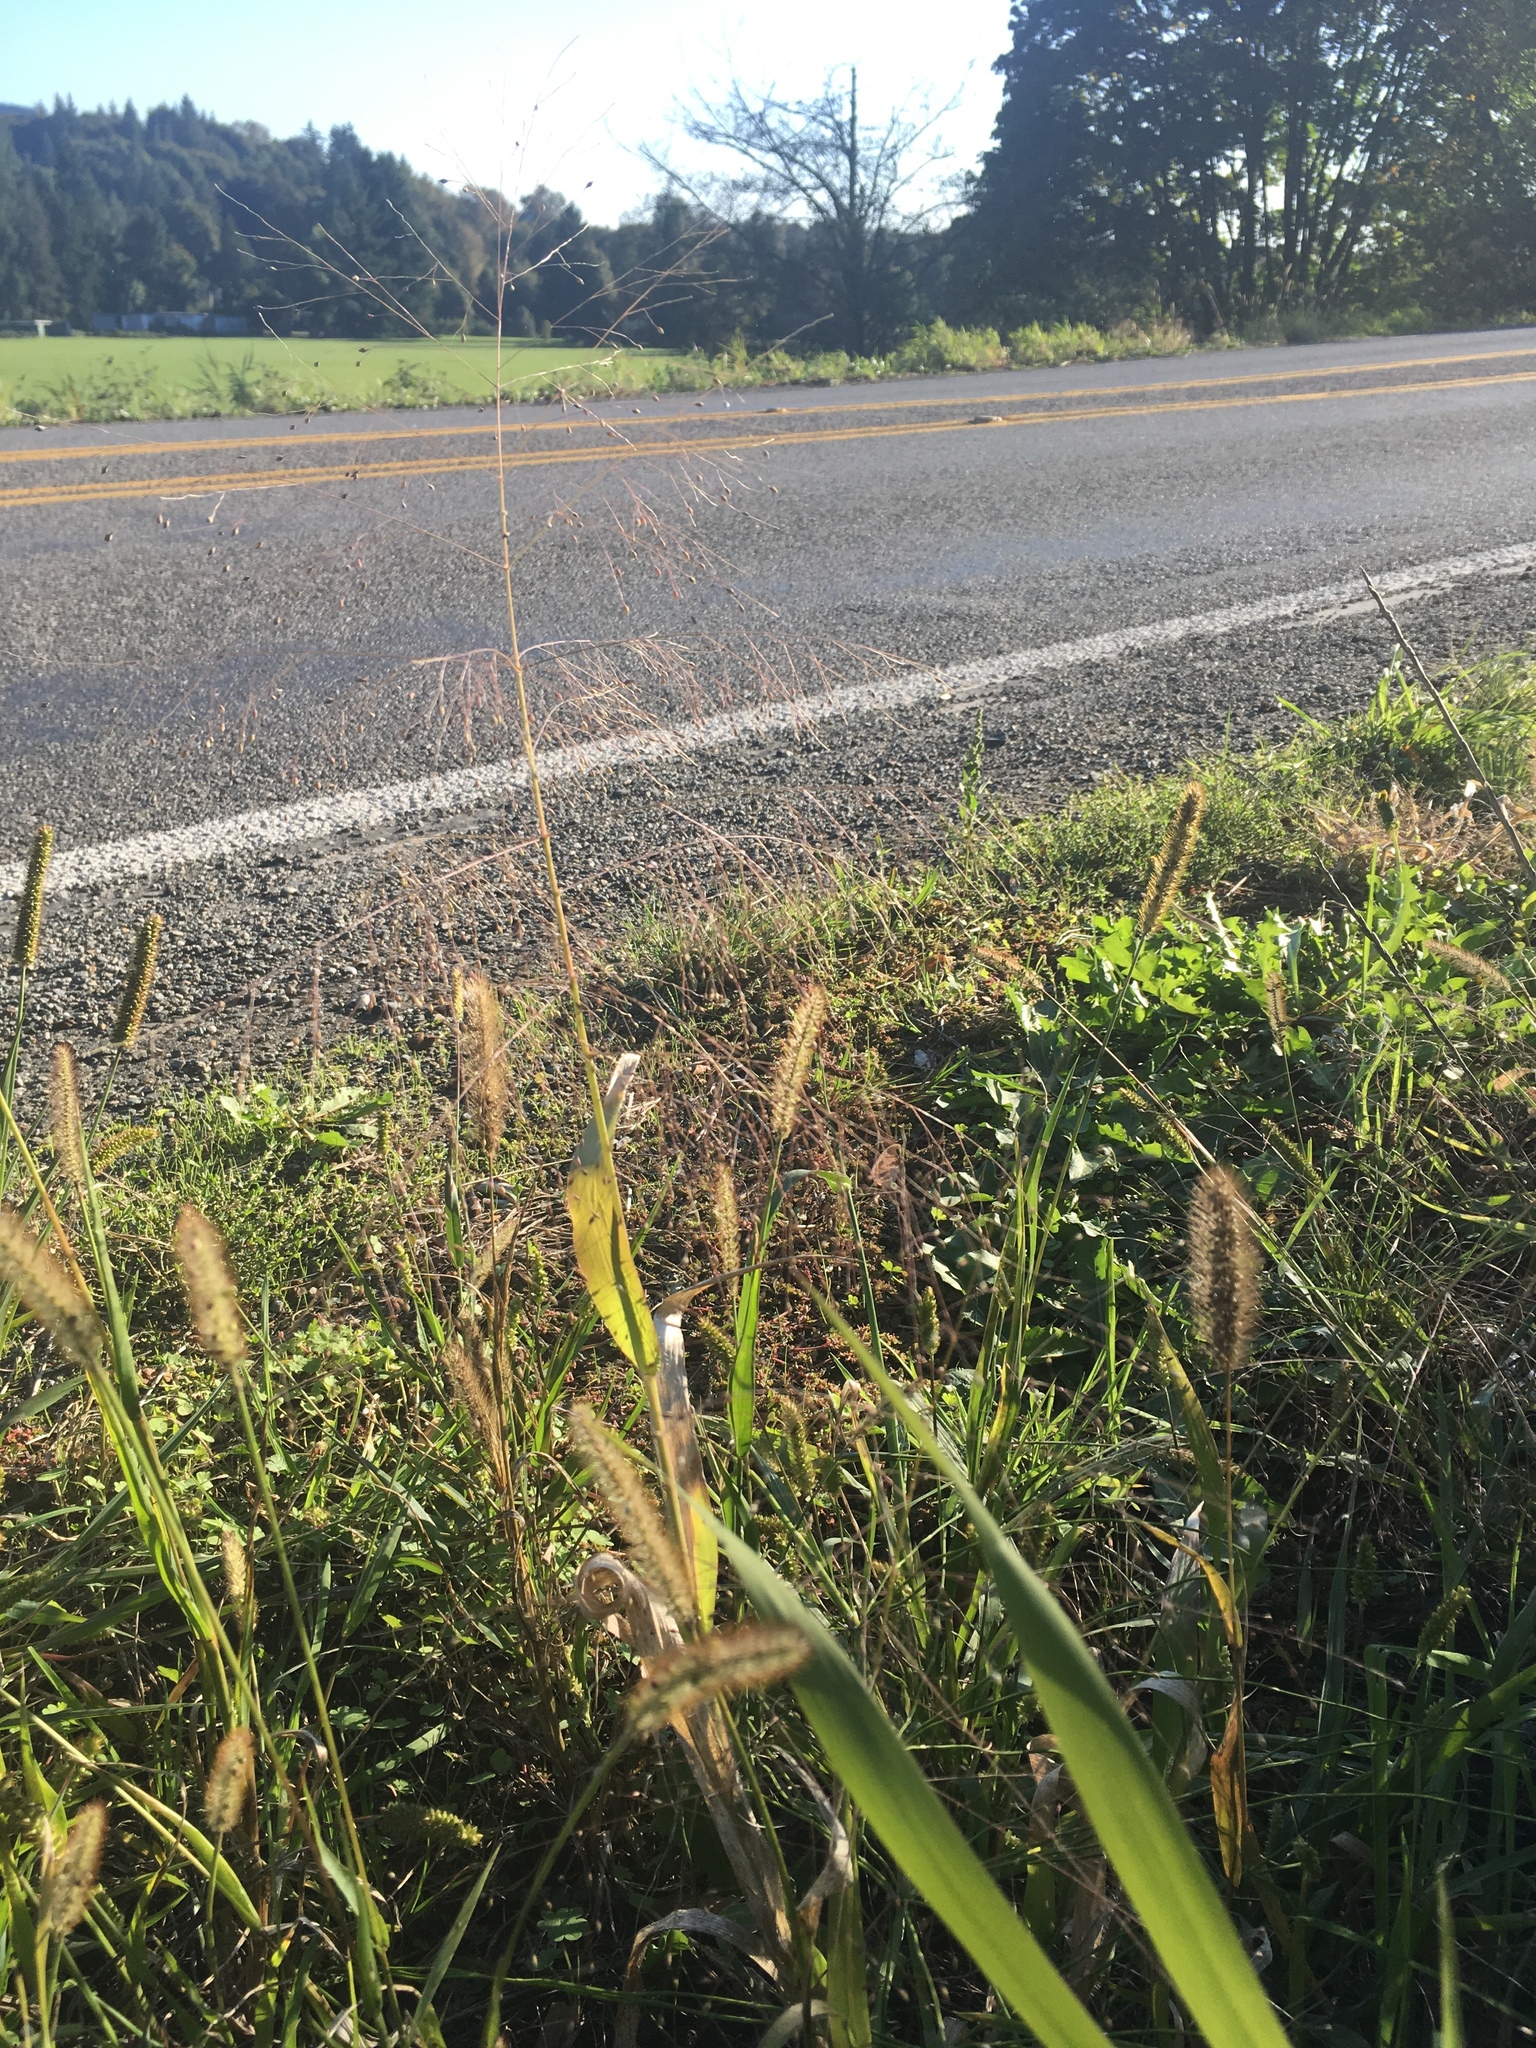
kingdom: Plantae
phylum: Tracheophyta
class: Liliopsida
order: Poales
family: Poaceae
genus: Panicum
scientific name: Panicum capillare
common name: Witch-grass
